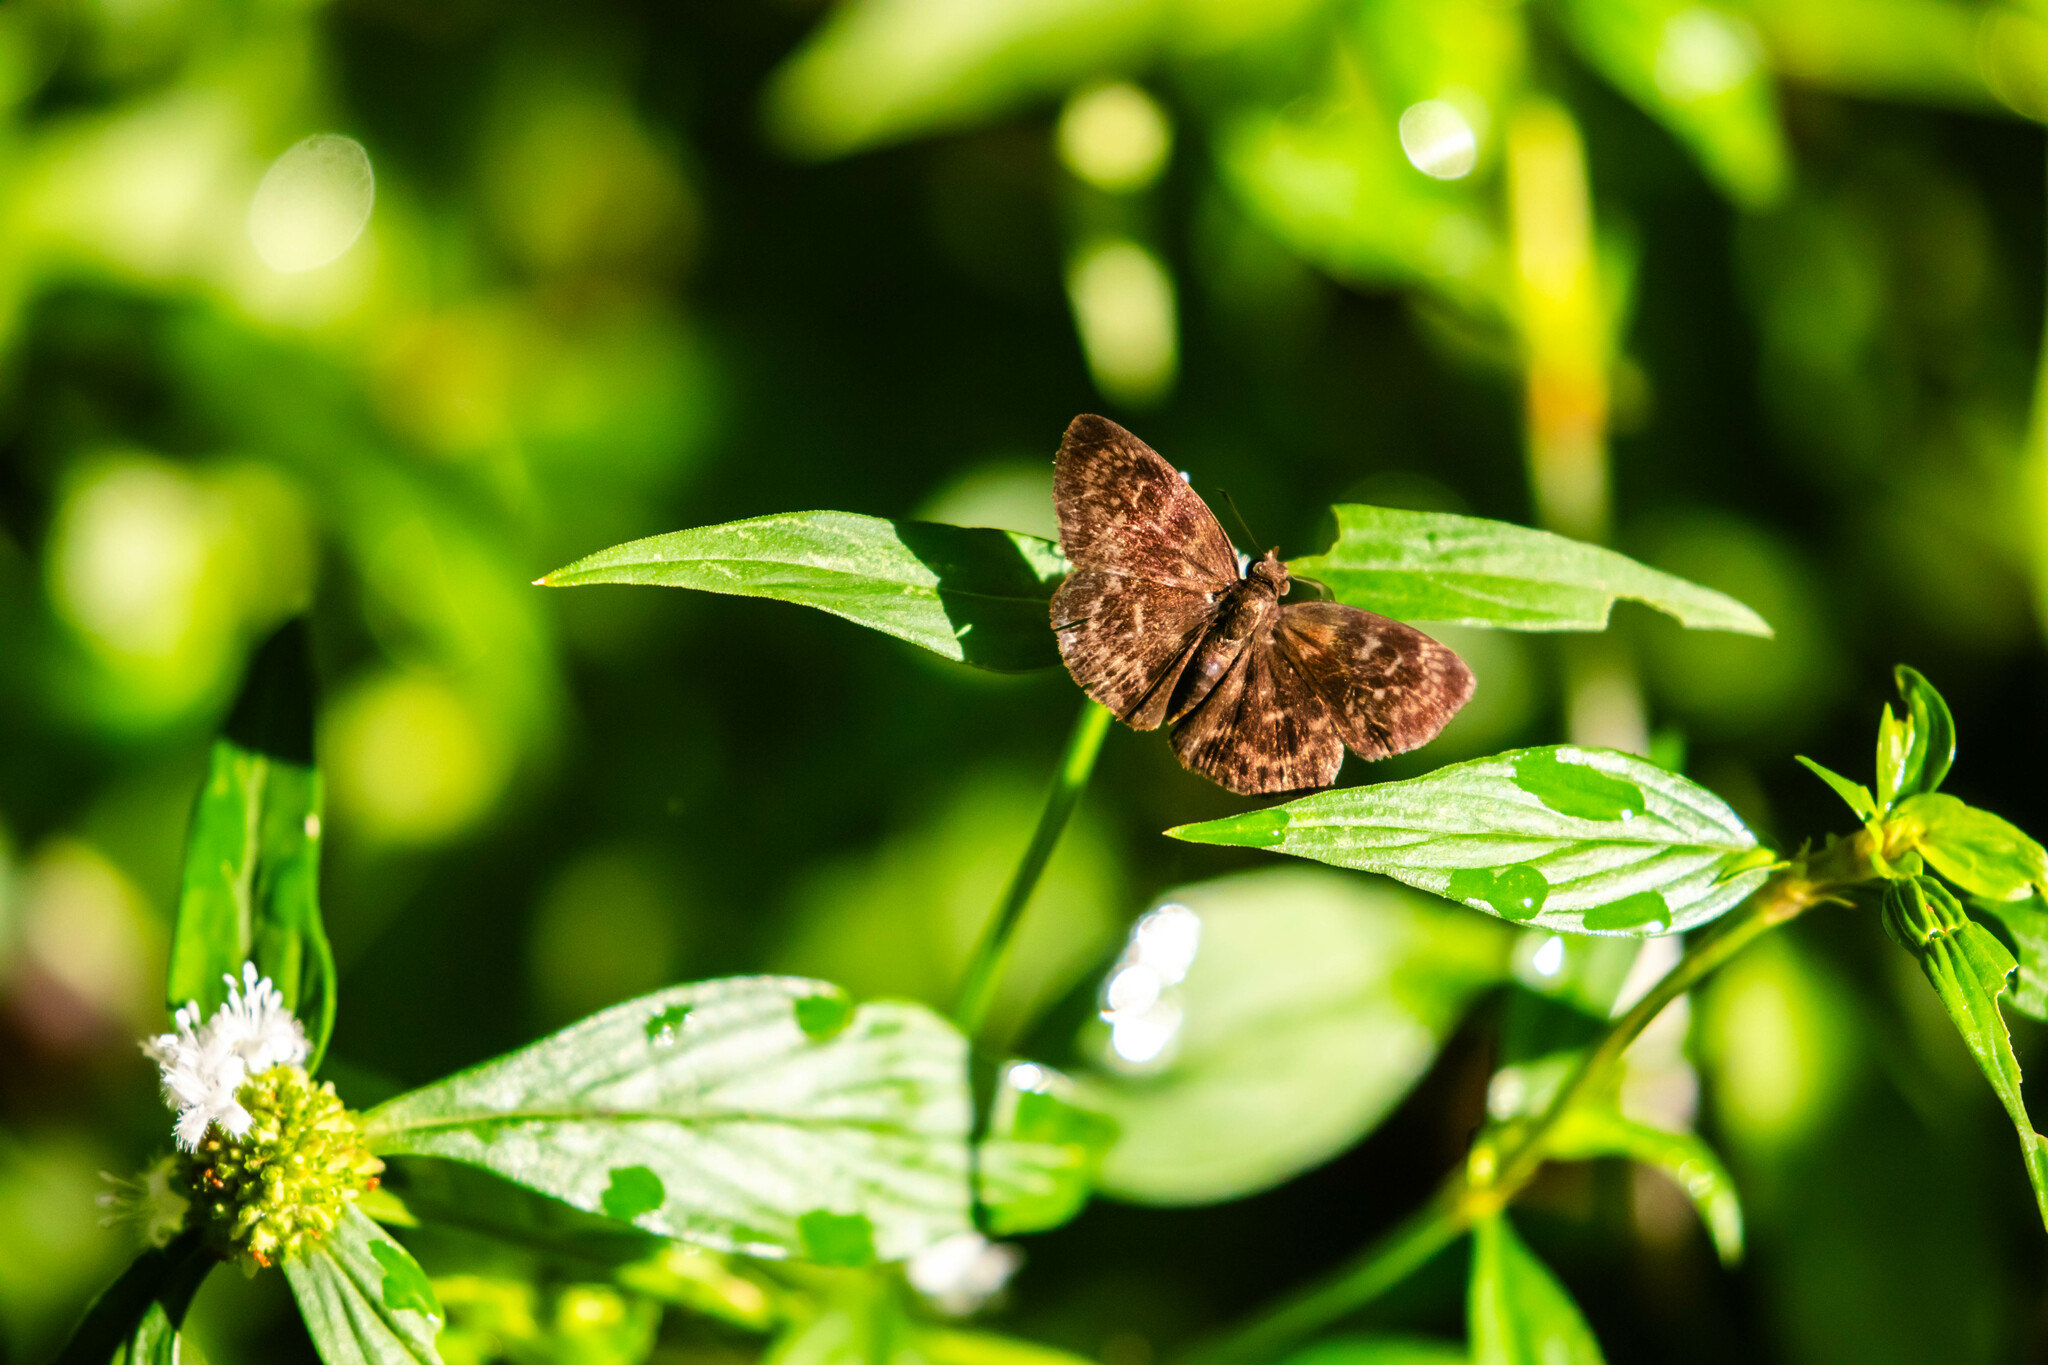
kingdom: Animalia
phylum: Arthropoda
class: Insecta
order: Lepidoptera
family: Hesperiidae
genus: Ouleus
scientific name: Ouleus fridericus
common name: Fridericus spreadwing
